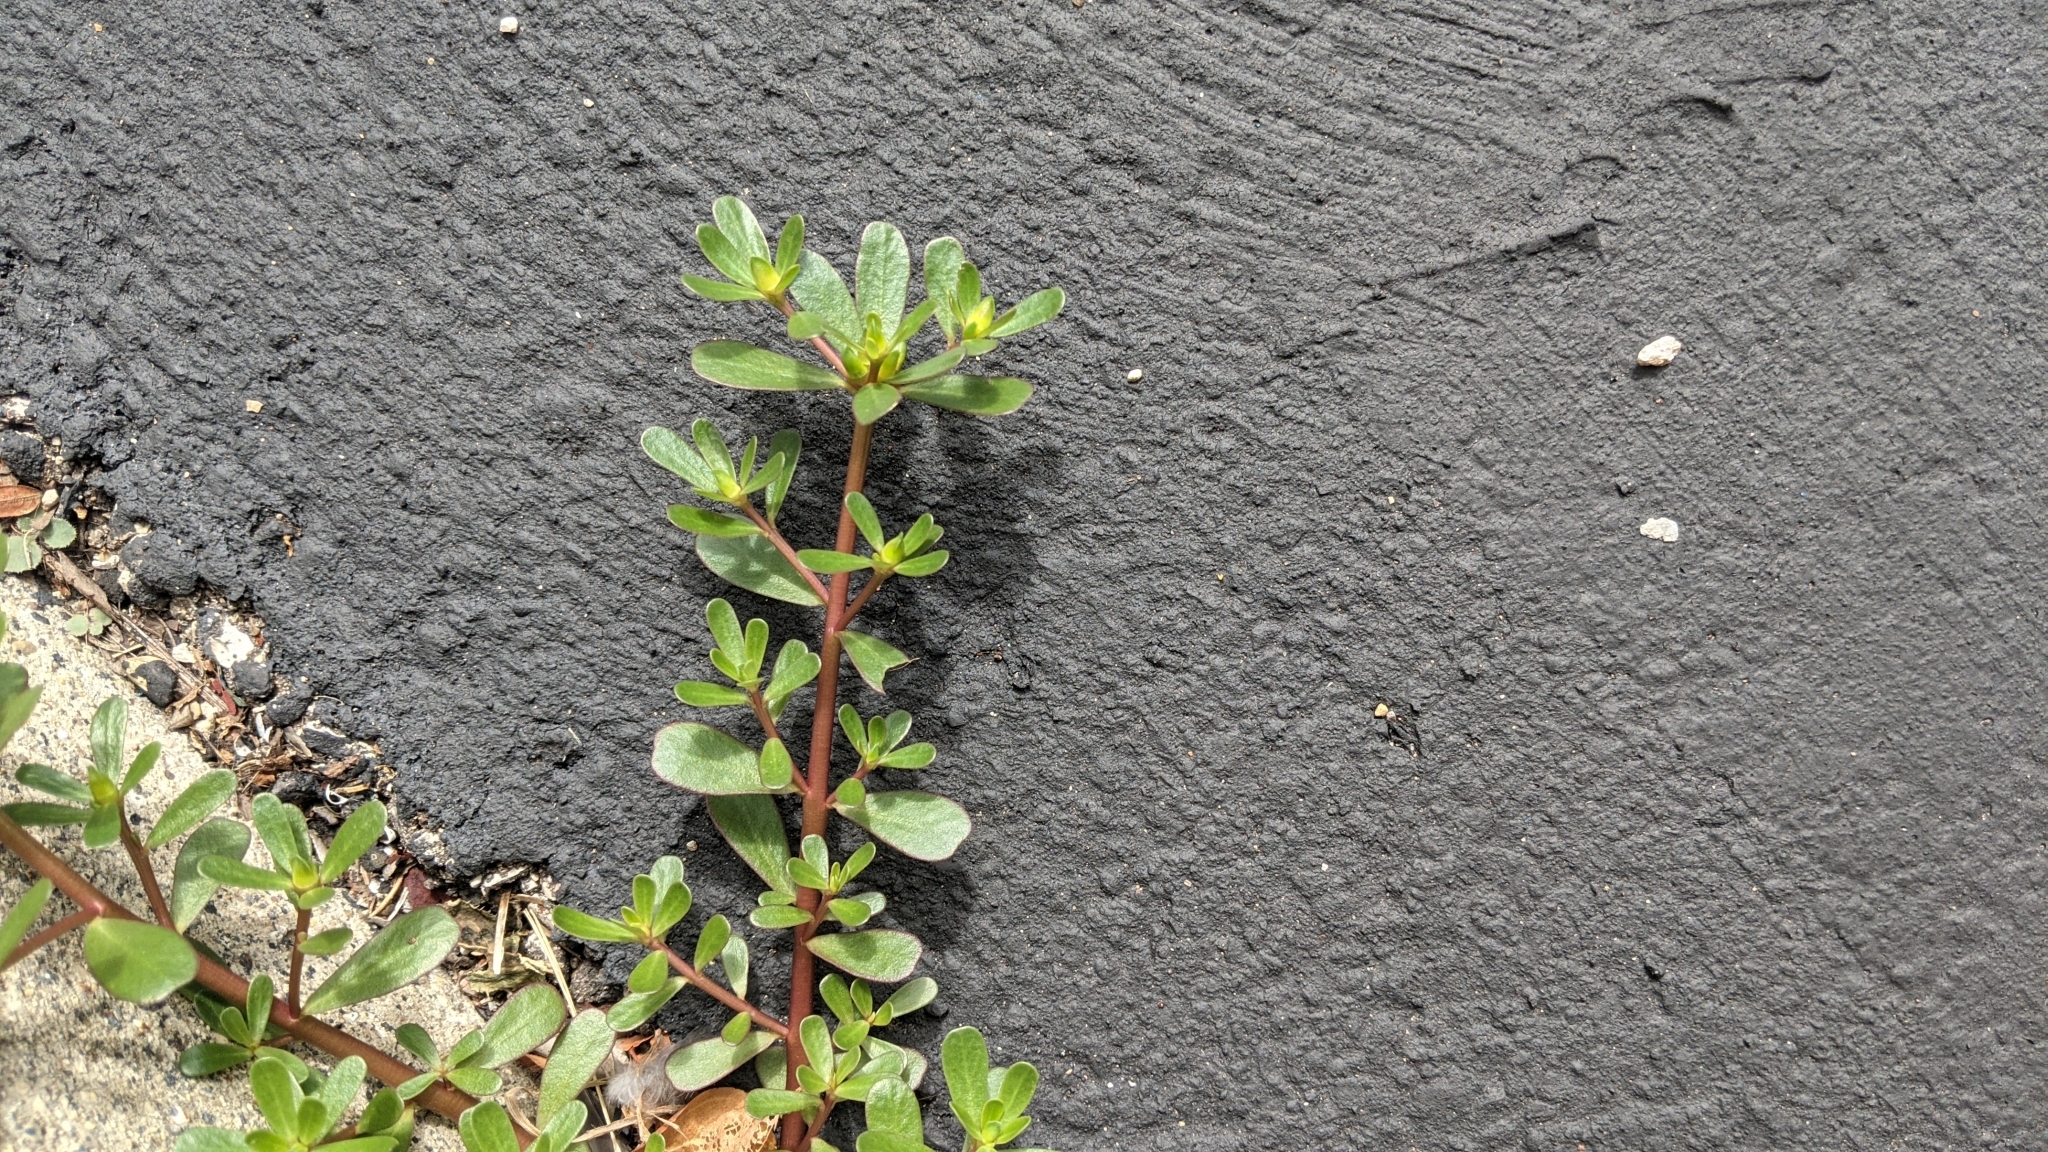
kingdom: Plantae
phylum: Tracheophyta
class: Magnoliopsida
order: Caryophyllales
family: Portulacaceae
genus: Portulaca
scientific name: Portulaca oleracea
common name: Common purslane
